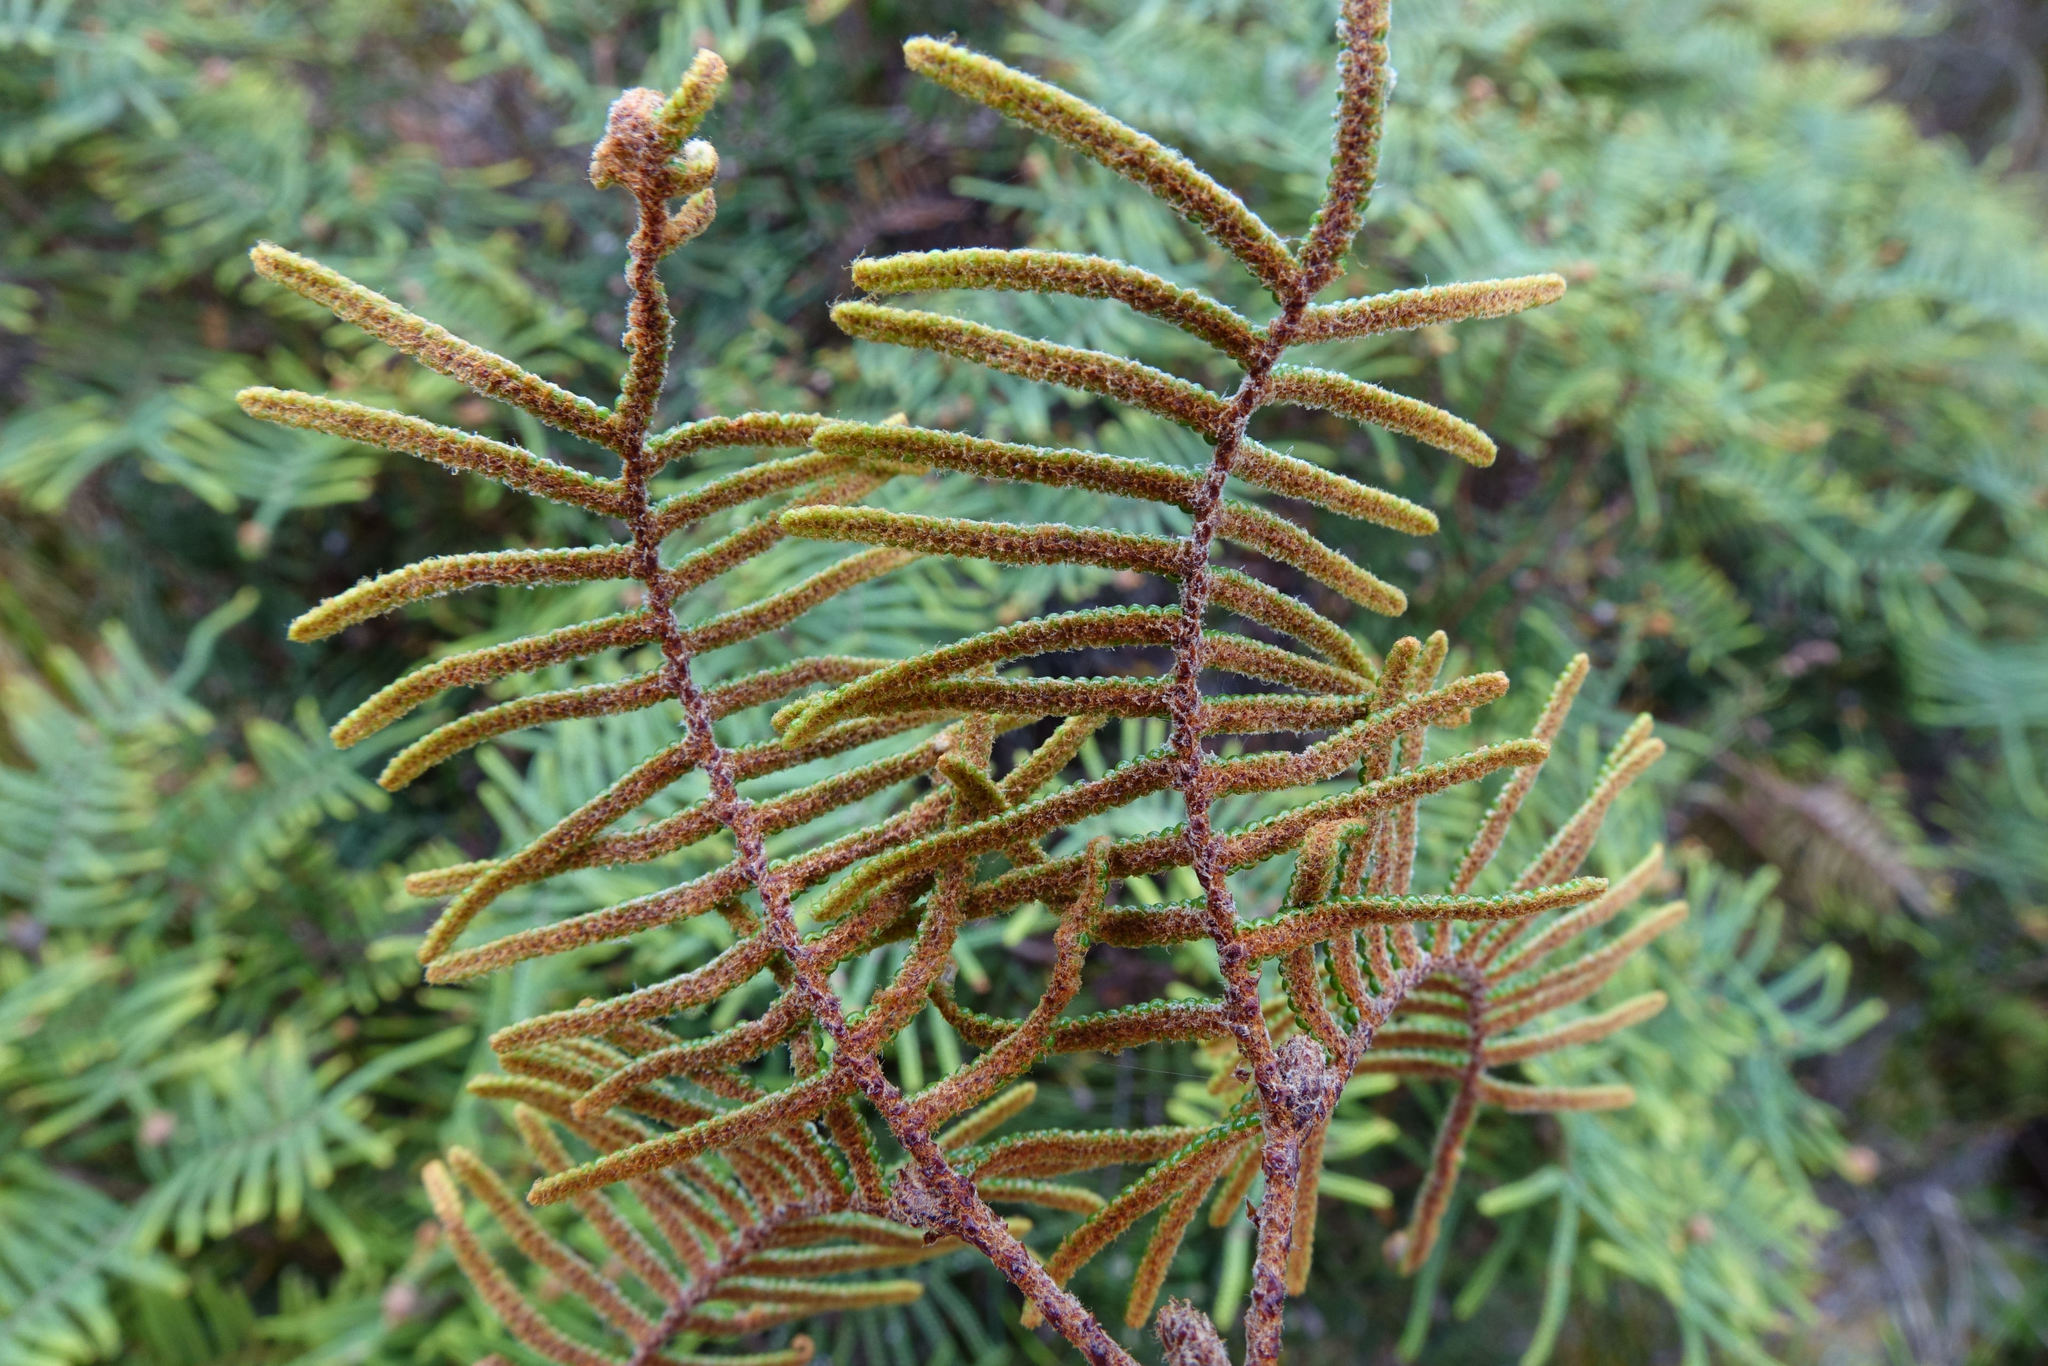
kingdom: Plantae
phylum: Tracheophyta
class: Polypodiopsida
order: Gleicheniales
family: Gleicheniaceae
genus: Gleichenia
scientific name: Gleichenia alpina
